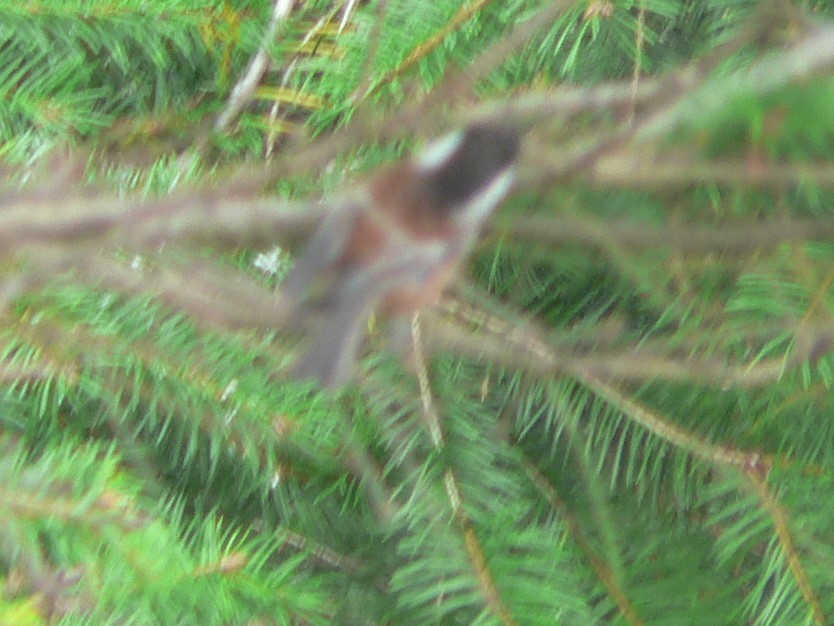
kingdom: Animalia
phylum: Chordata
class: Aves
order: Passeriformes
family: Paridae
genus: Poecile
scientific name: Poecile rufescens
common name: Chestnut-backed chickadee
